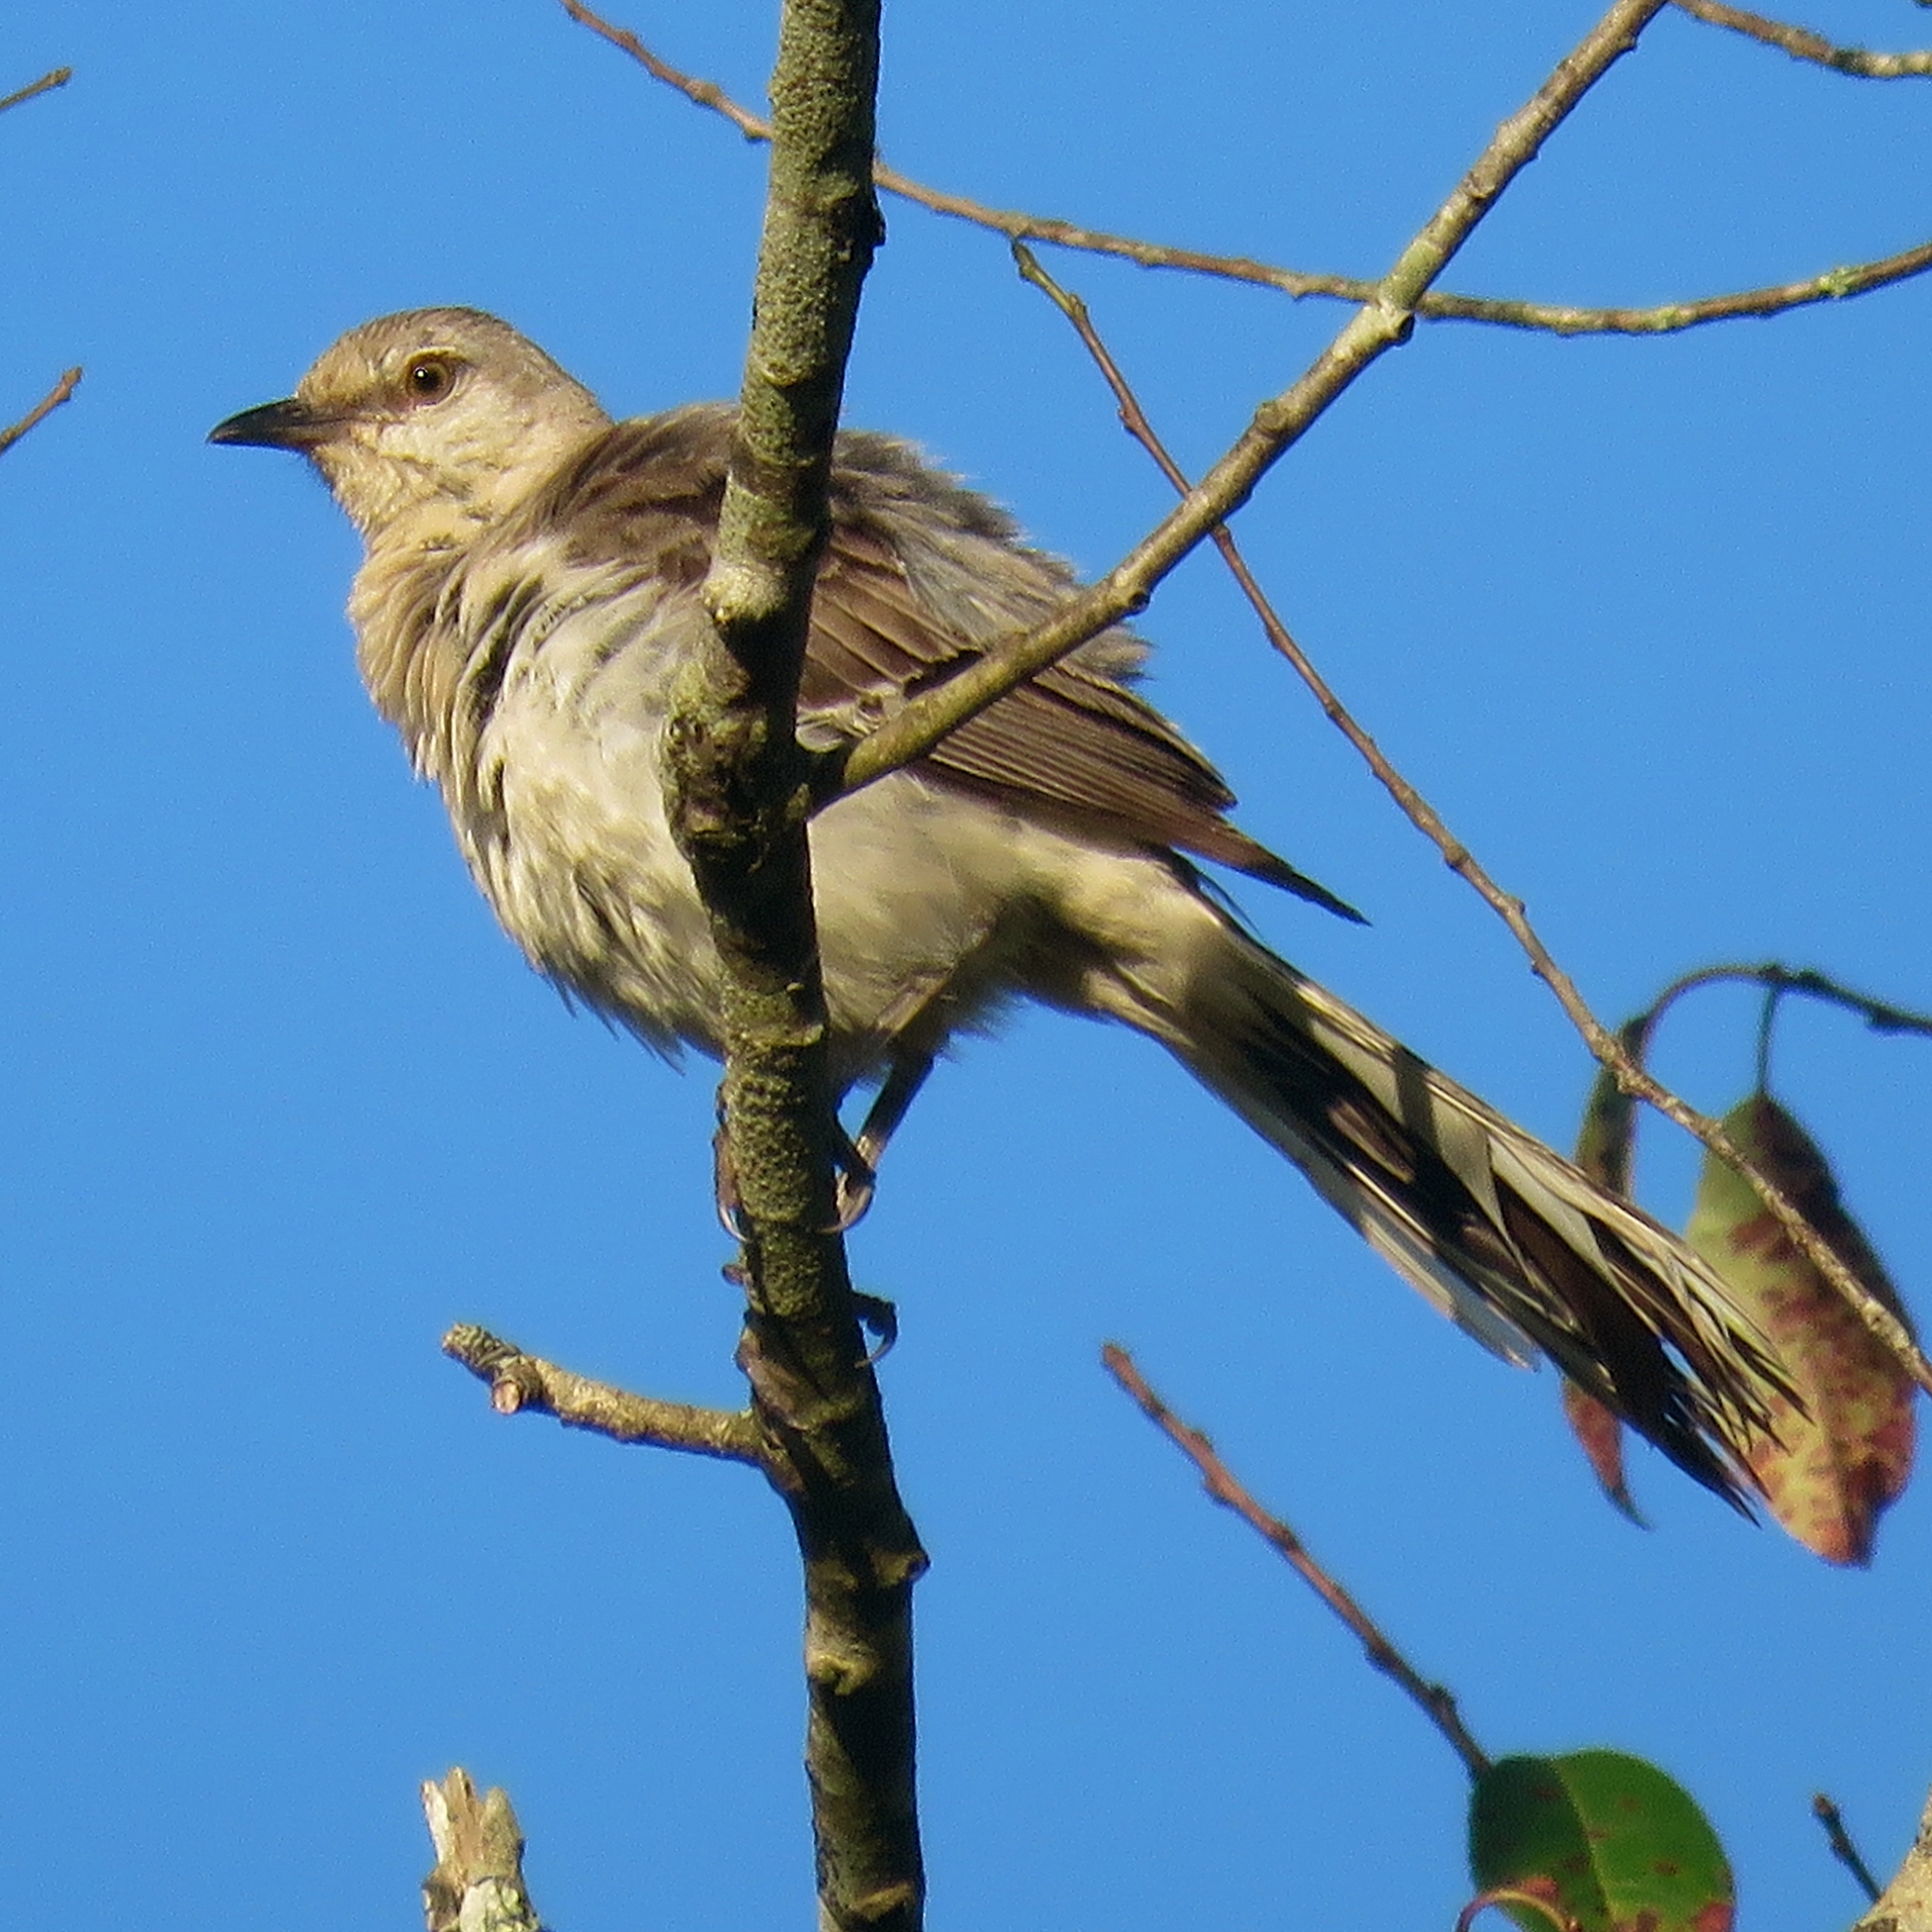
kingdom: Animalia
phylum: Chordata
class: Aves
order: Passeriformes
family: Mimidae
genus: Mimus
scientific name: Mimus polyglottos
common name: Northern mockingbird
